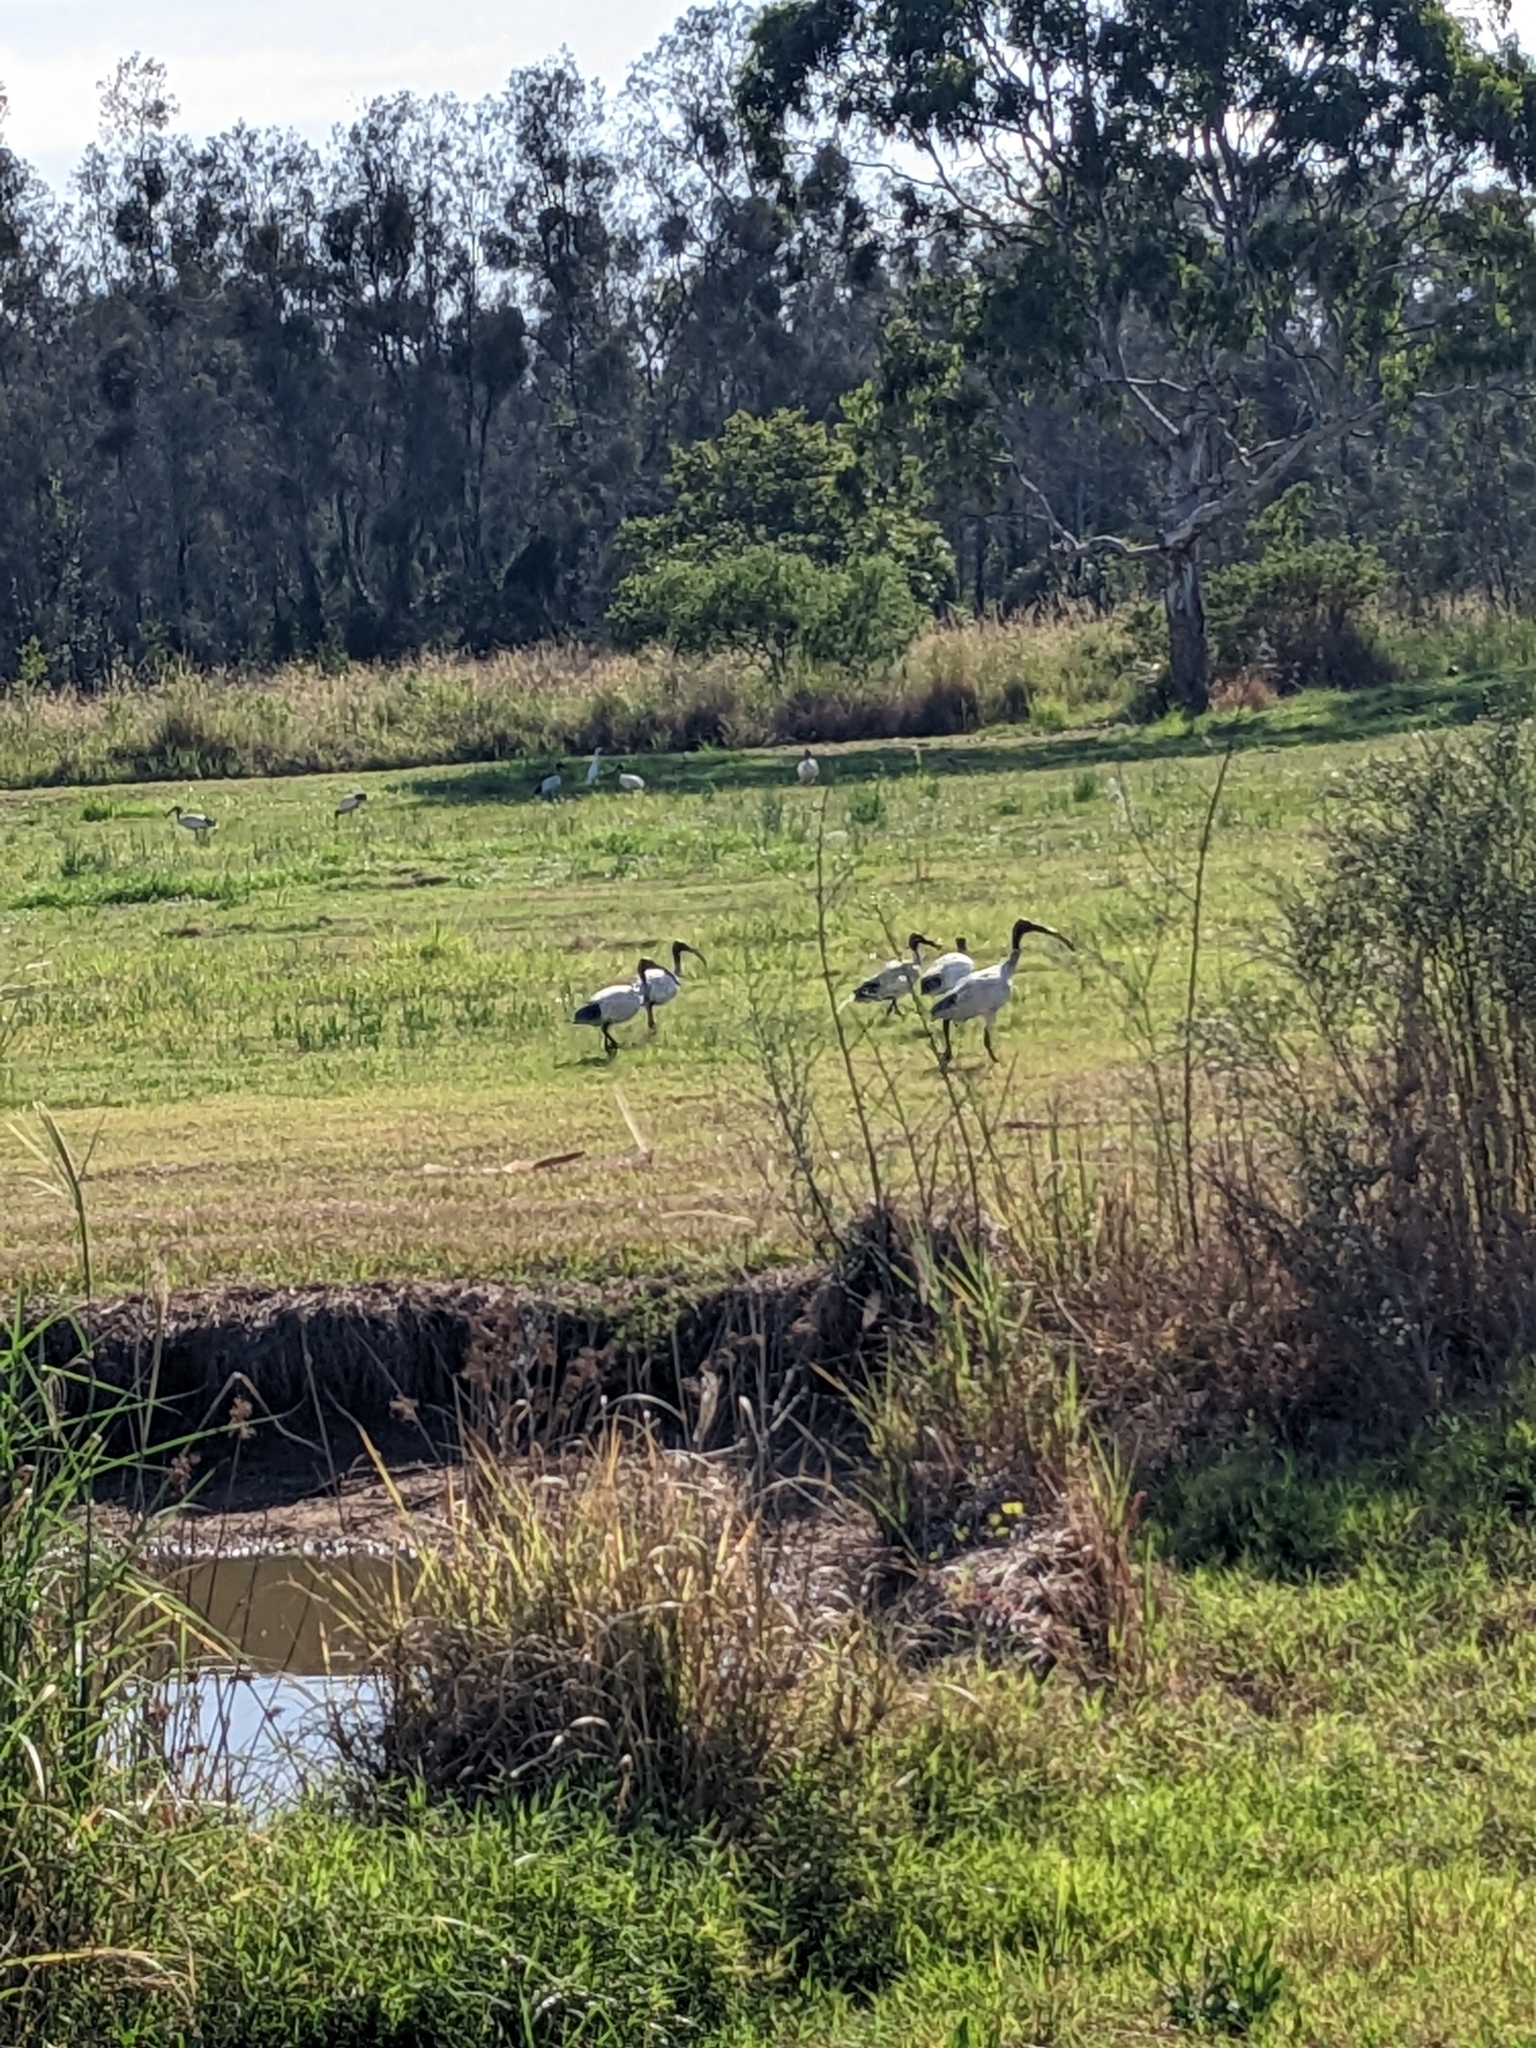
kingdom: Animalia
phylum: Chordata
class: Aves
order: Pelecaniformes
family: Threskiornithidae
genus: Threskiornis
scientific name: Threskiornis molucca
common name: Australian white ibis
